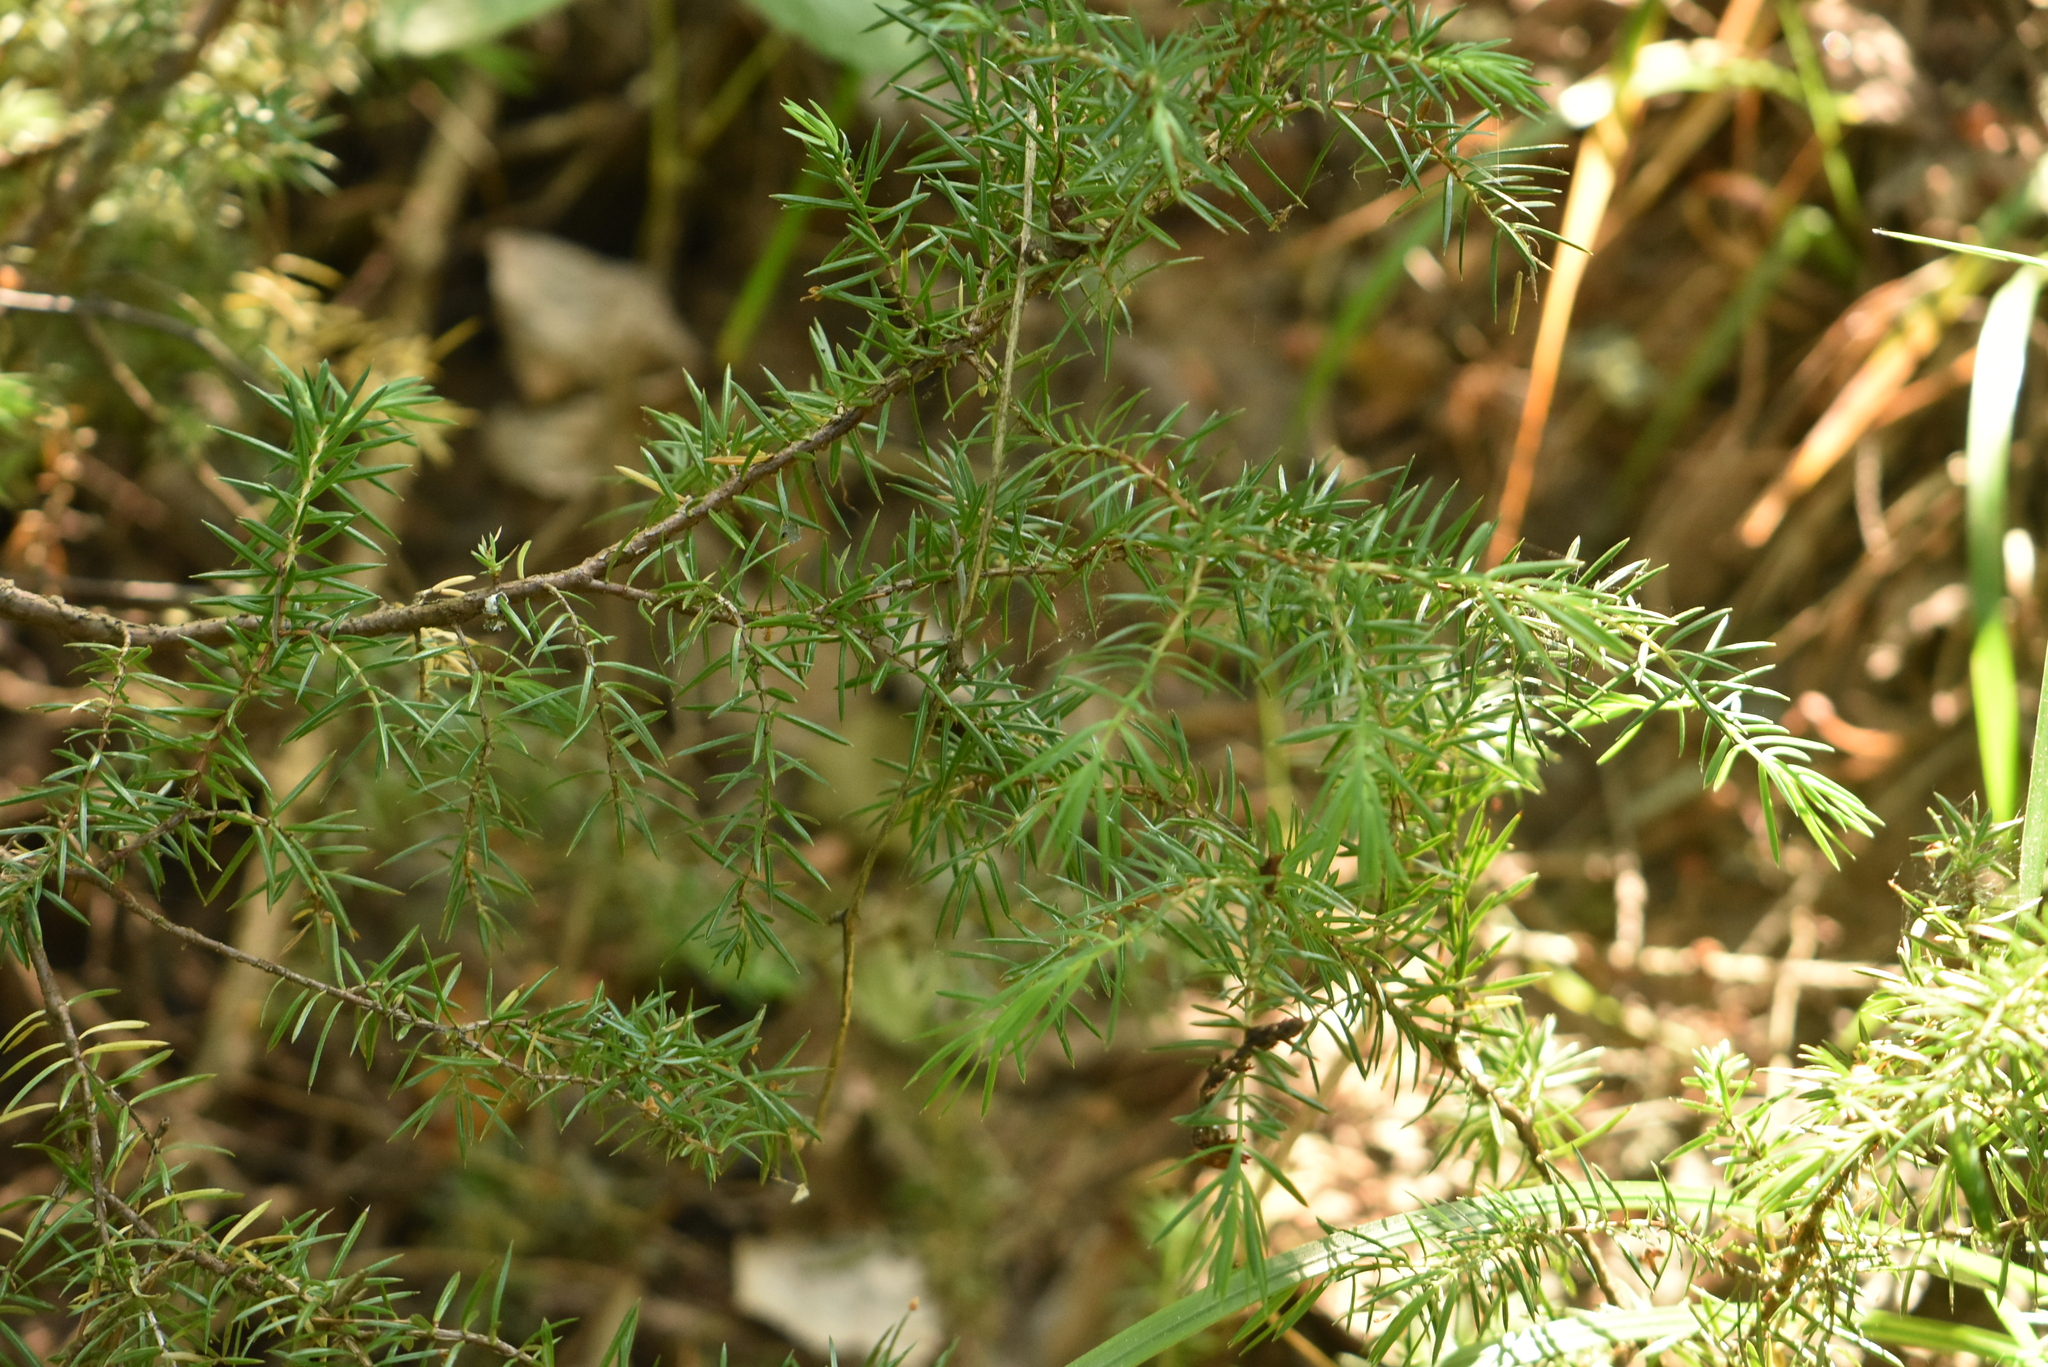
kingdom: Plantae
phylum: Tracheophyta
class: Pinopsida
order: Pinales
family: Cupressaceae
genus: Juniperus
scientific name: Juniperus communis
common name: Common juniper
